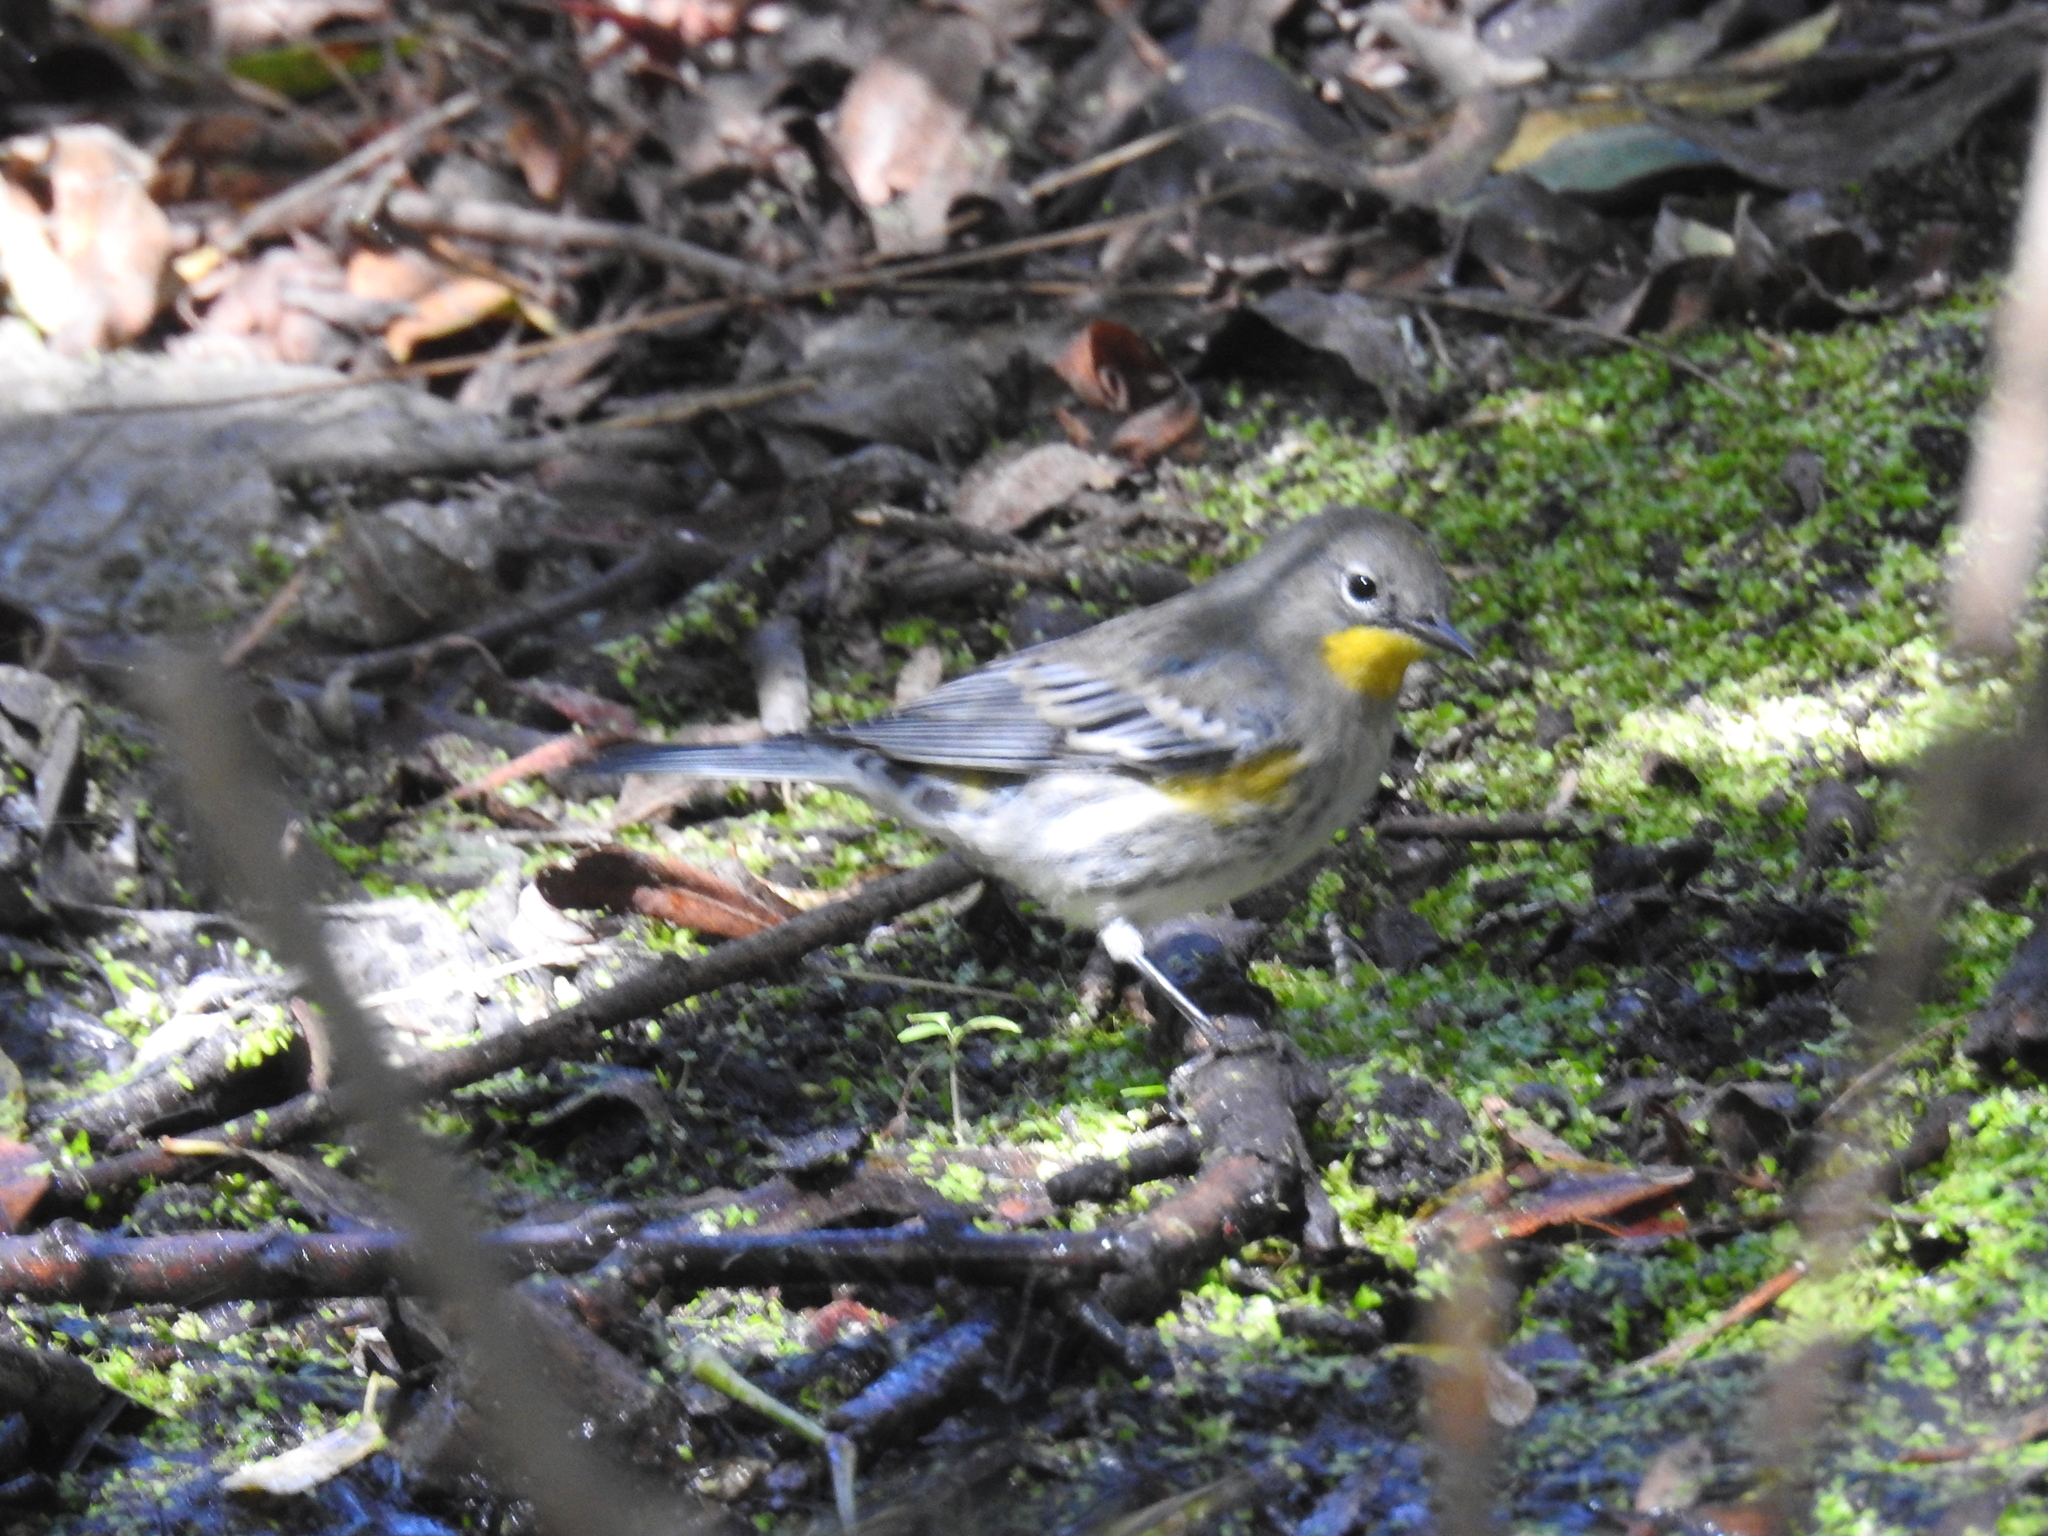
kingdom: Animalia
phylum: Chordata
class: Aves
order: Passeriformes
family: Parulidae
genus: Setophaga
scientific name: Setophaga coronata
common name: Myrtle warbler
